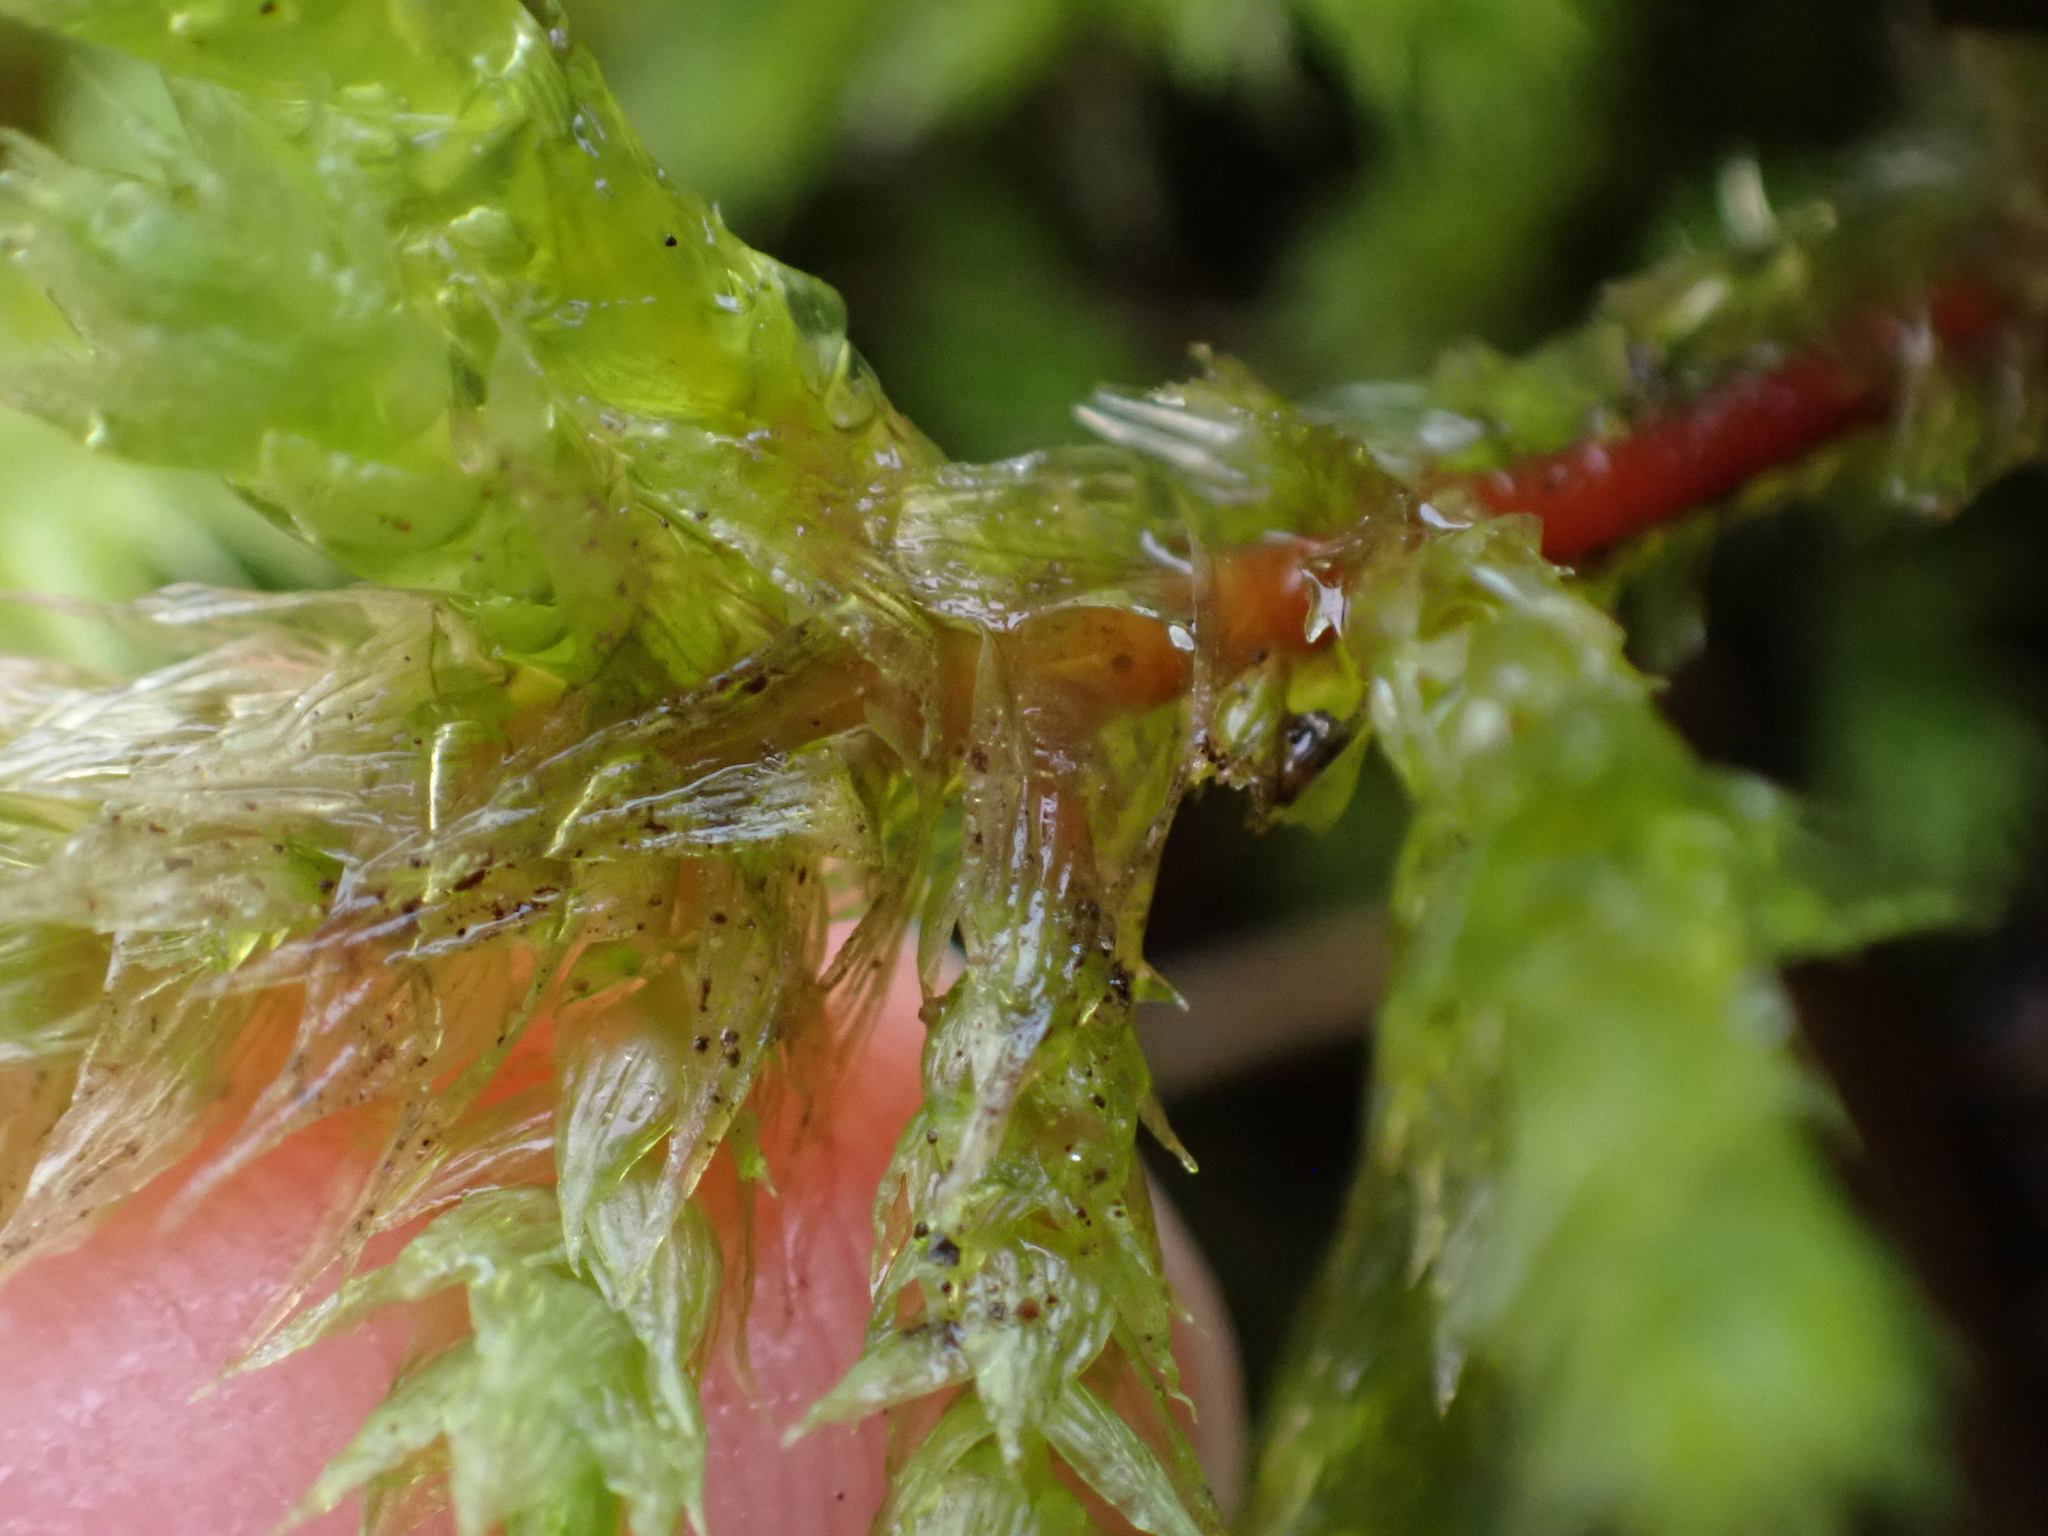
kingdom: Plantae
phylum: Bryophyta
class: Bryopsida
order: Hypnales
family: Hylocomiaceae
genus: Hylocomiadelphus
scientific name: Hylocomiadelphus triquetrus
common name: Rough goose neck moss
